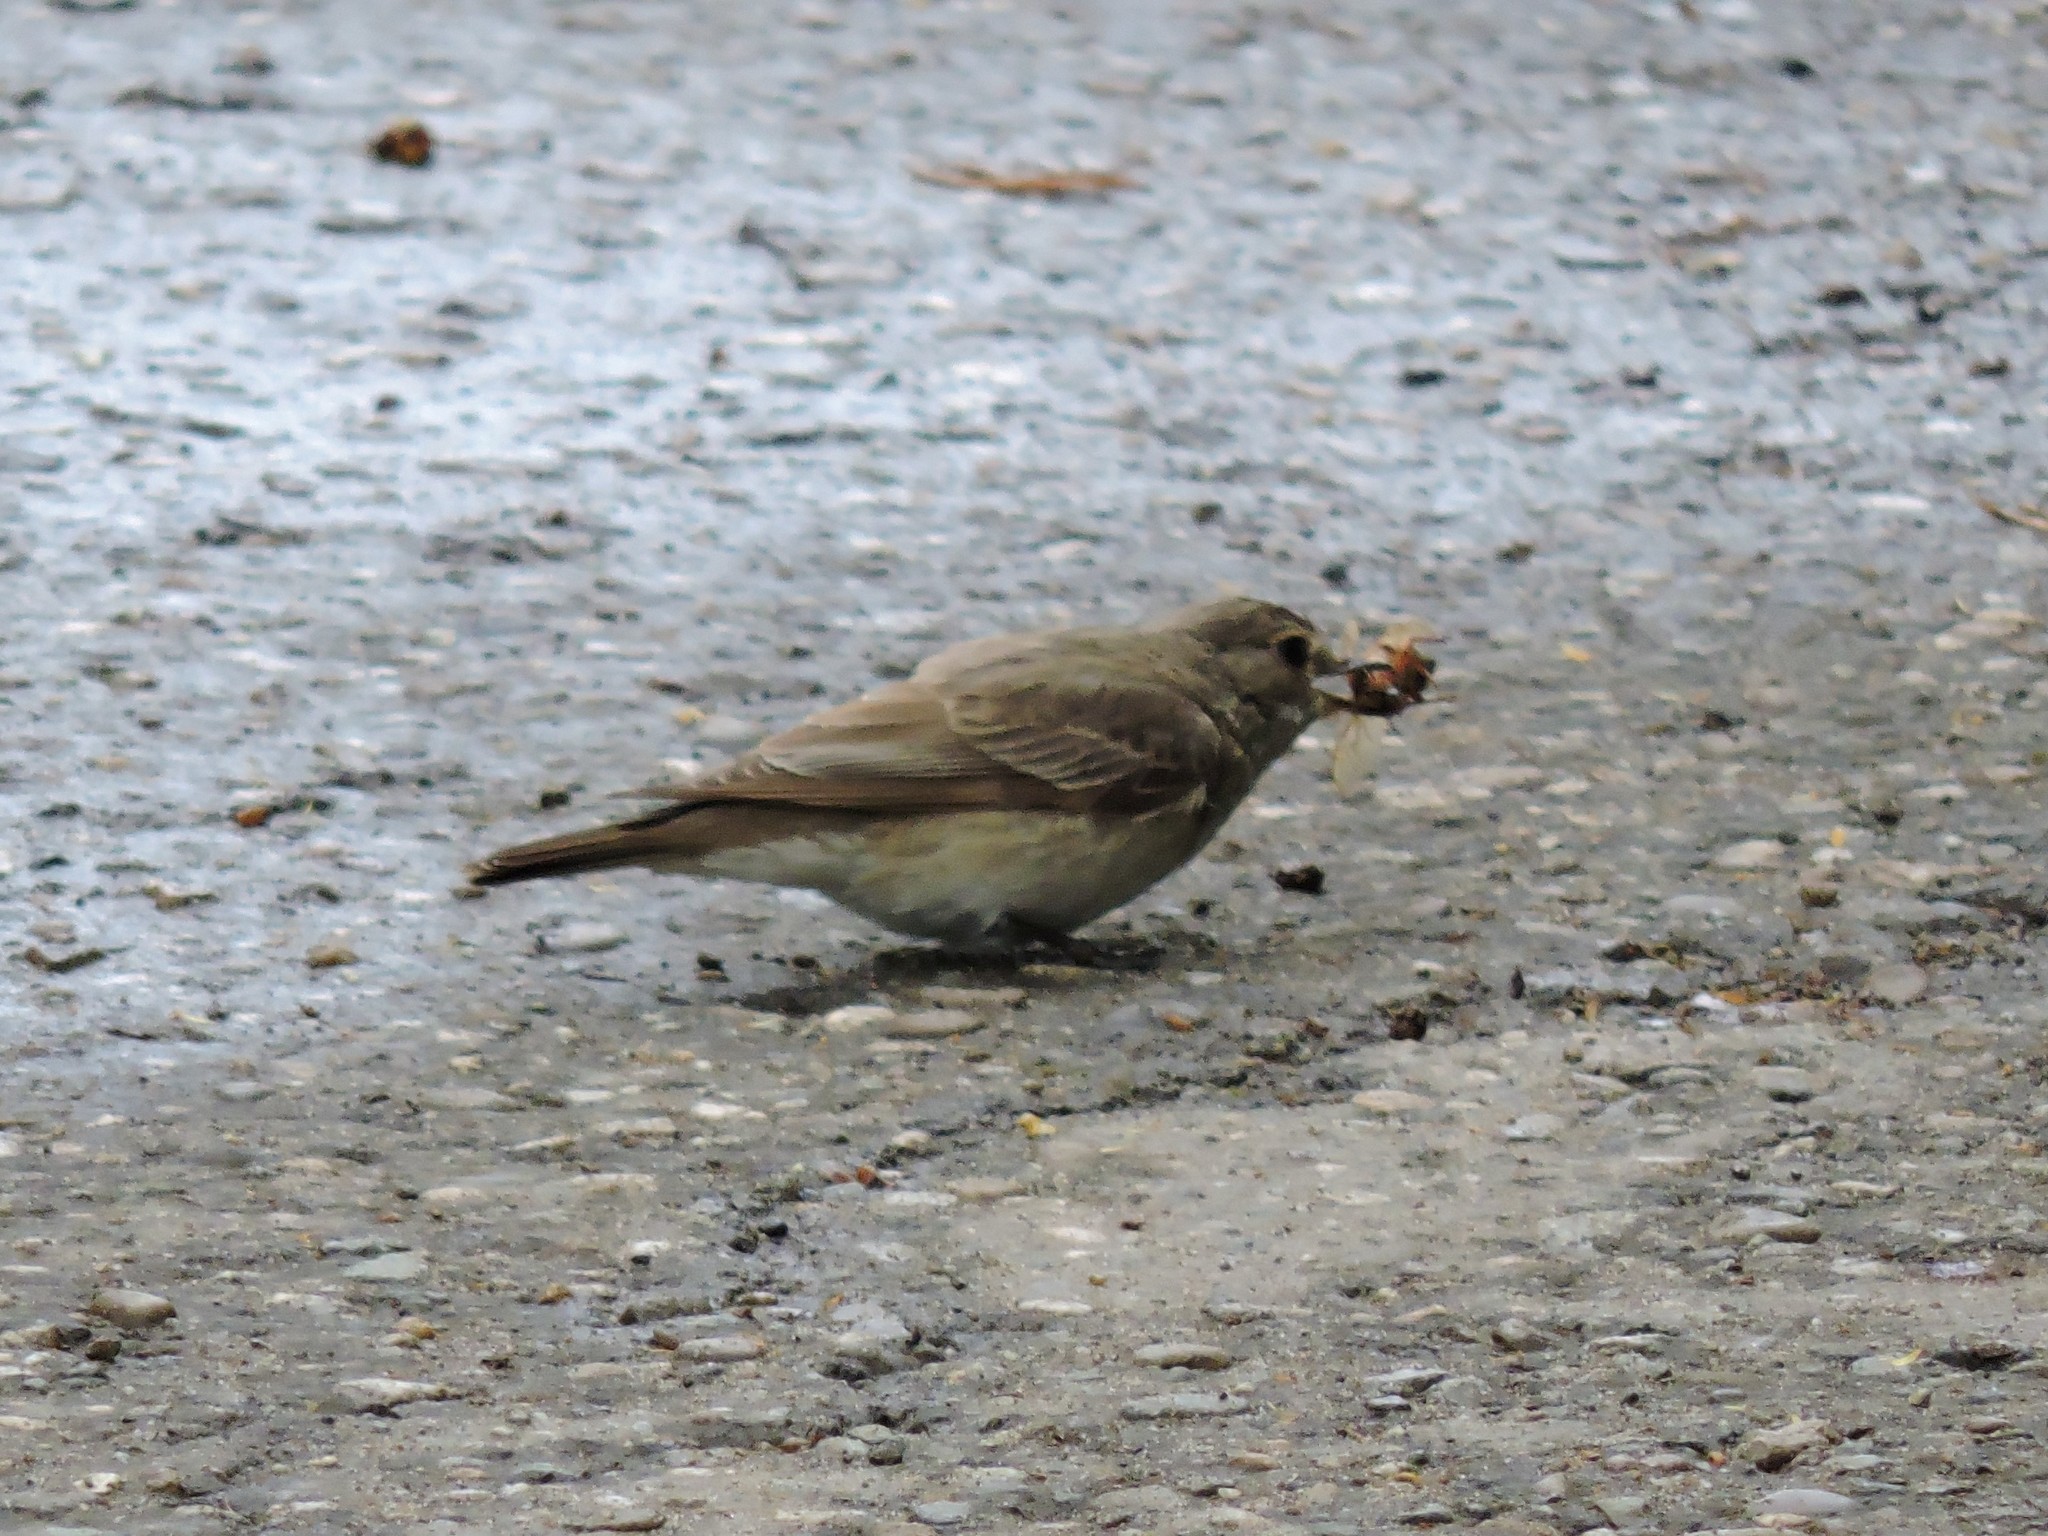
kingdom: Animalia
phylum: Chordata
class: Aves
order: Passeriformes
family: Muscicapidae
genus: Muscicapa
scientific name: Muscicapa striata
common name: Spotted flycatcher
